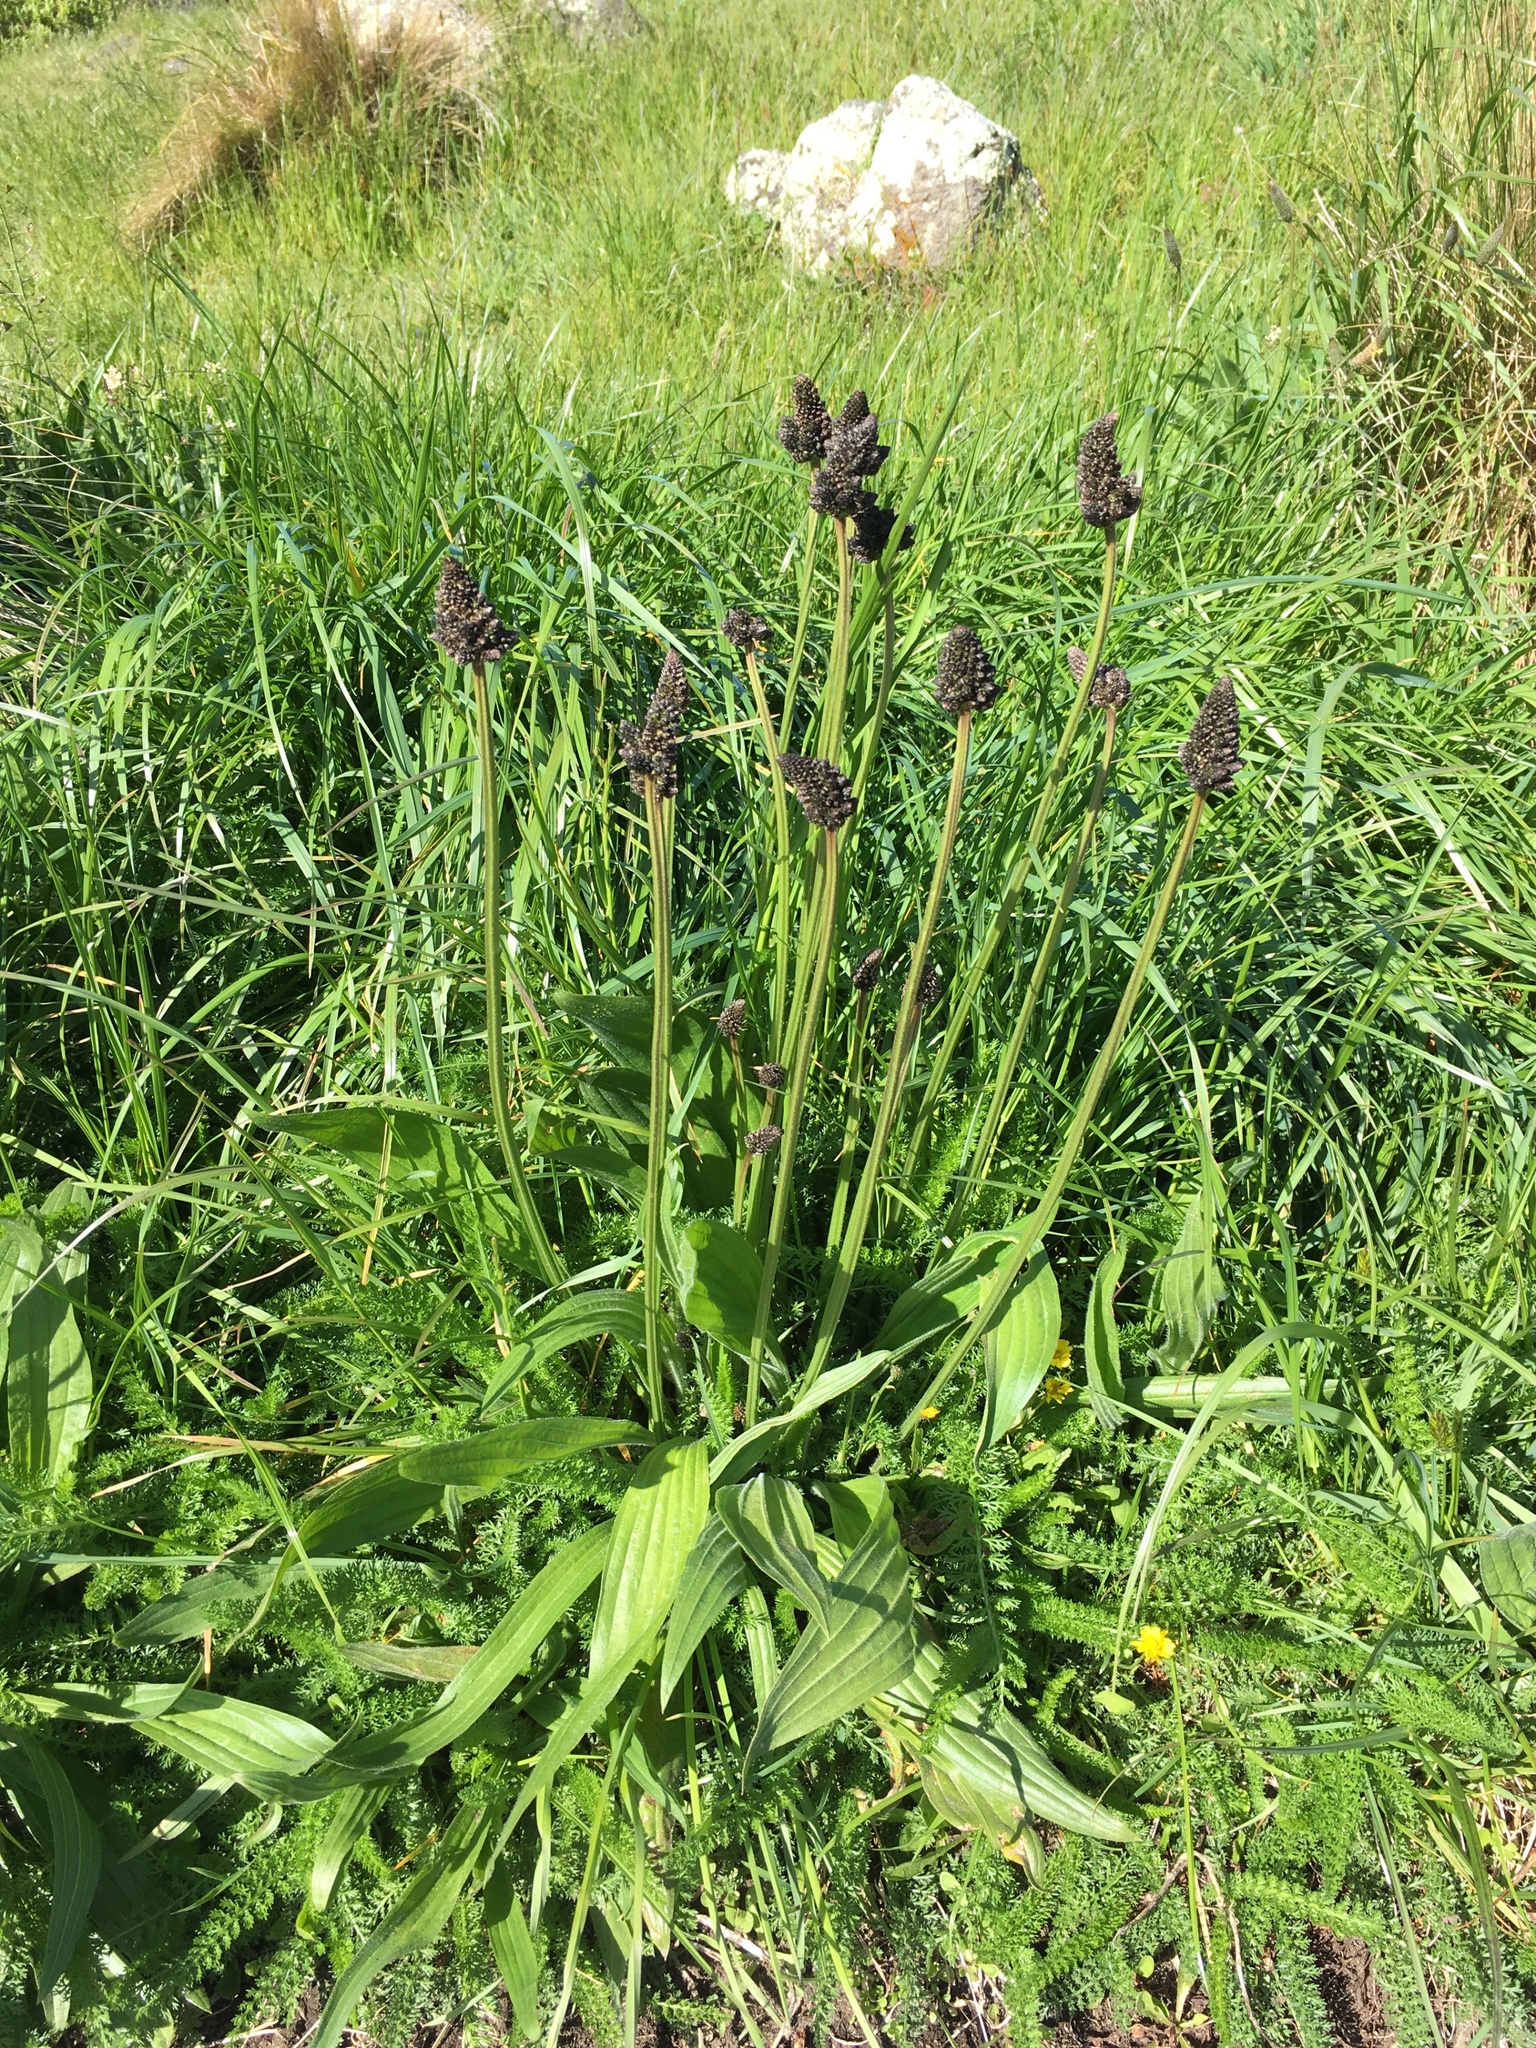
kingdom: Plantae
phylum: Tracheophyta
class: Magnoliopsida
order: Lamiales
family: Plantaginaceae
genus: Plantago
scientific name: Plantago lanceolata
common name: Ribwort plantain
